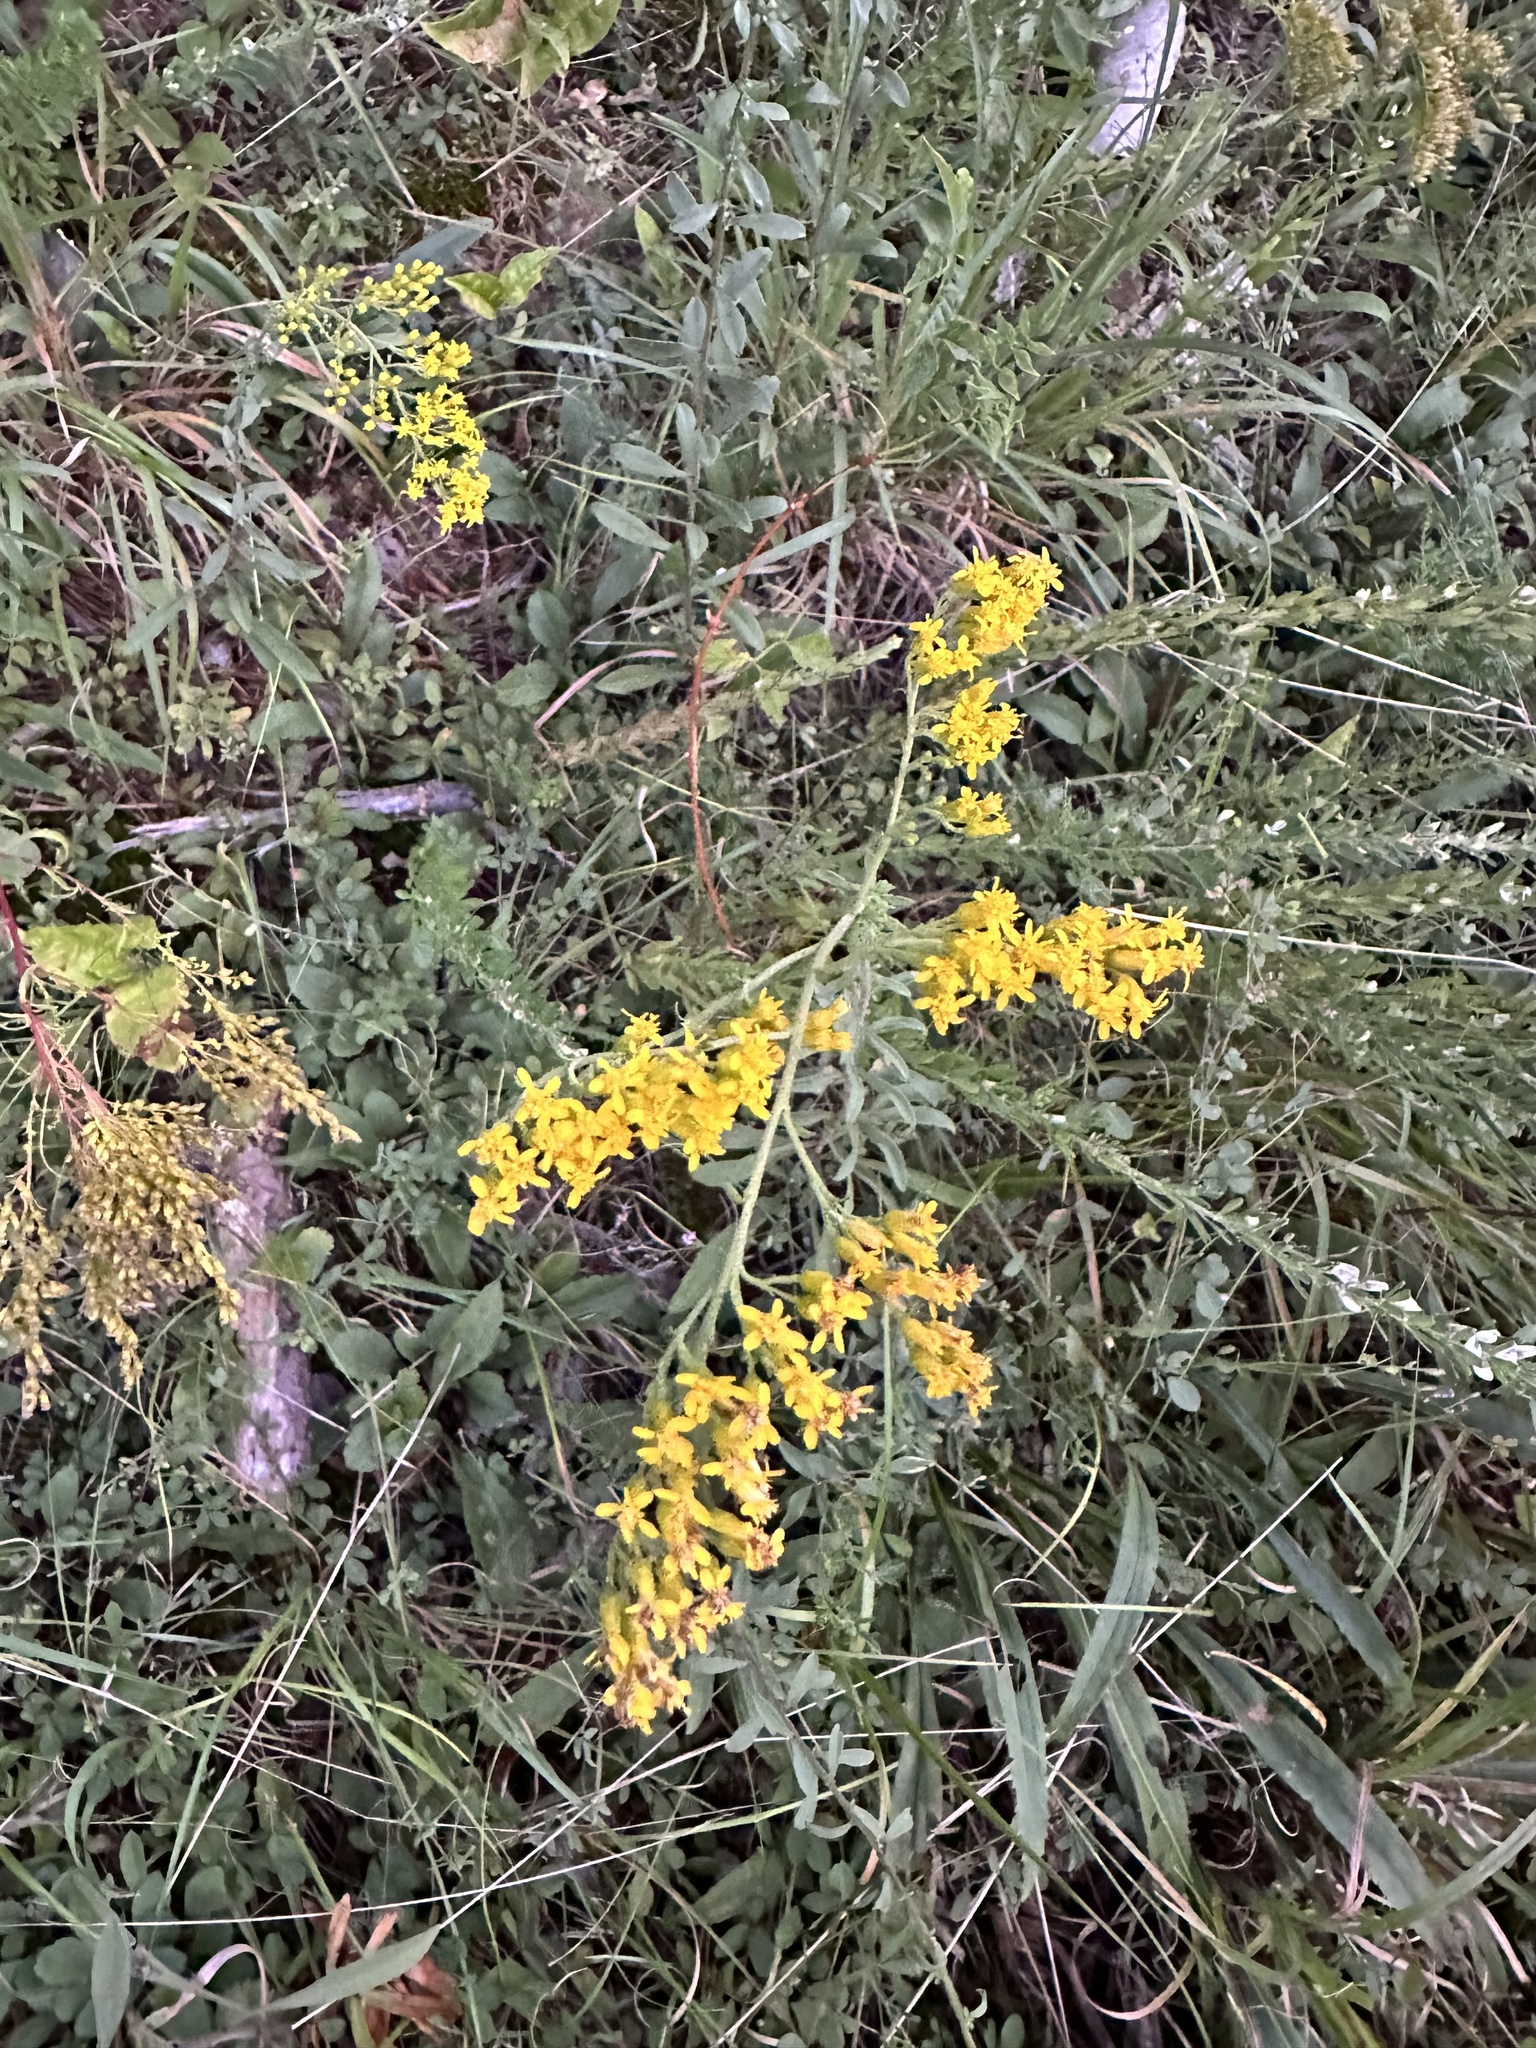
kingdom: Plantae
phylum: Tracheophyta
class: Magnoliopsida
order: Asterales
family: Asteraceae
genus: Solidago
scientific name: Solidago nemoralis
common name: Grey goldenrod
